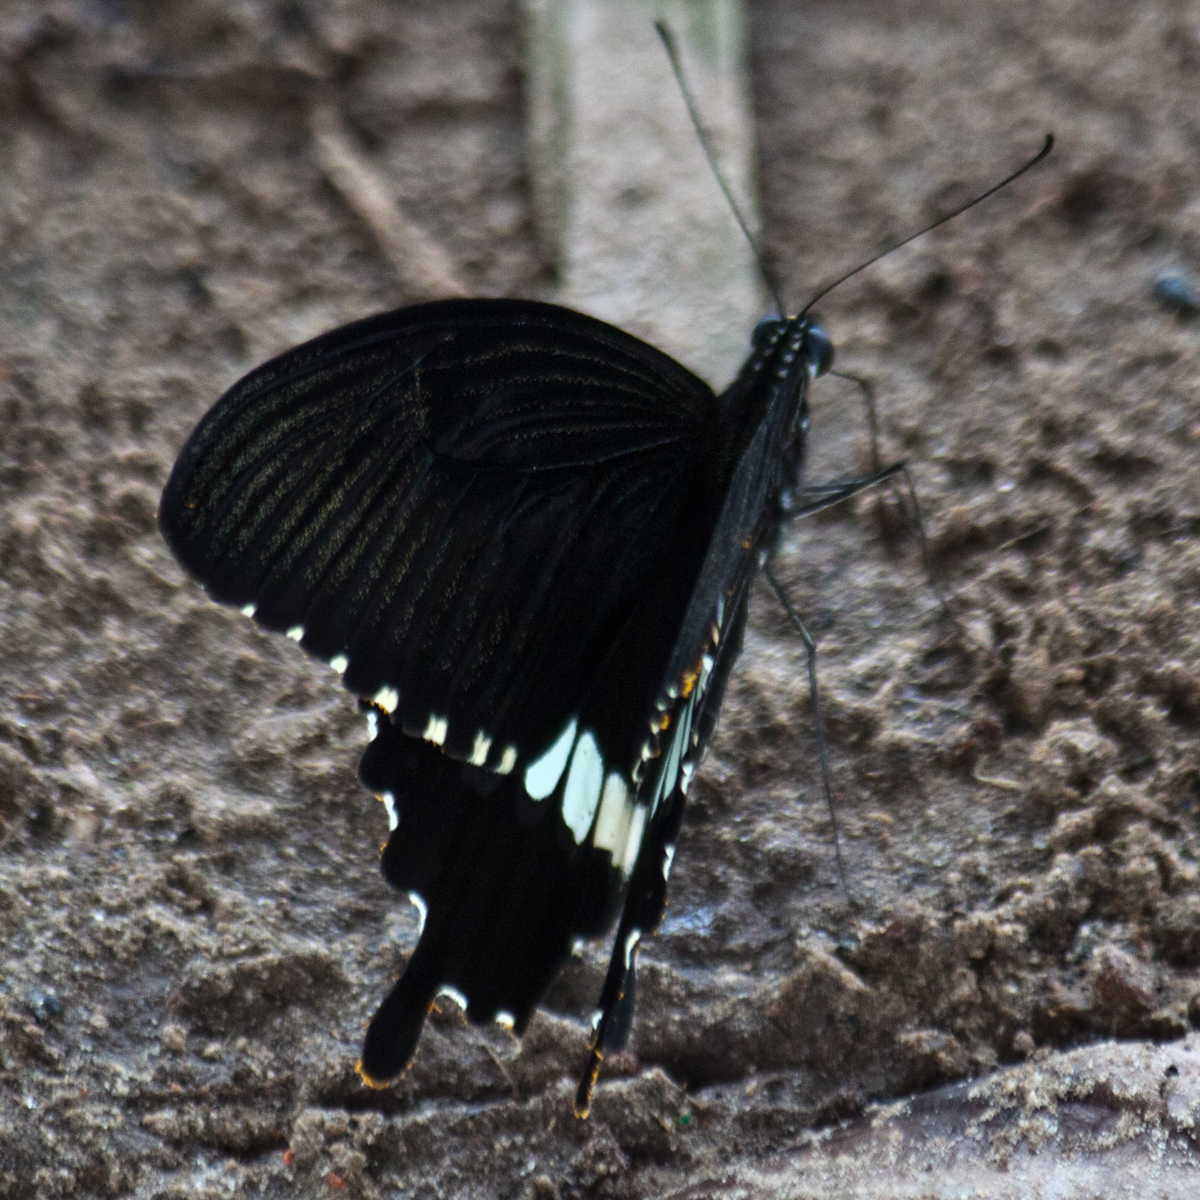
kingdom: Animalia
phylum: Arthropoda
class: Insecta
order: Lepidoptera
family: Papilionidae
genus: Papilio
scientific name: Papilio polytes
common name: Common mormon
